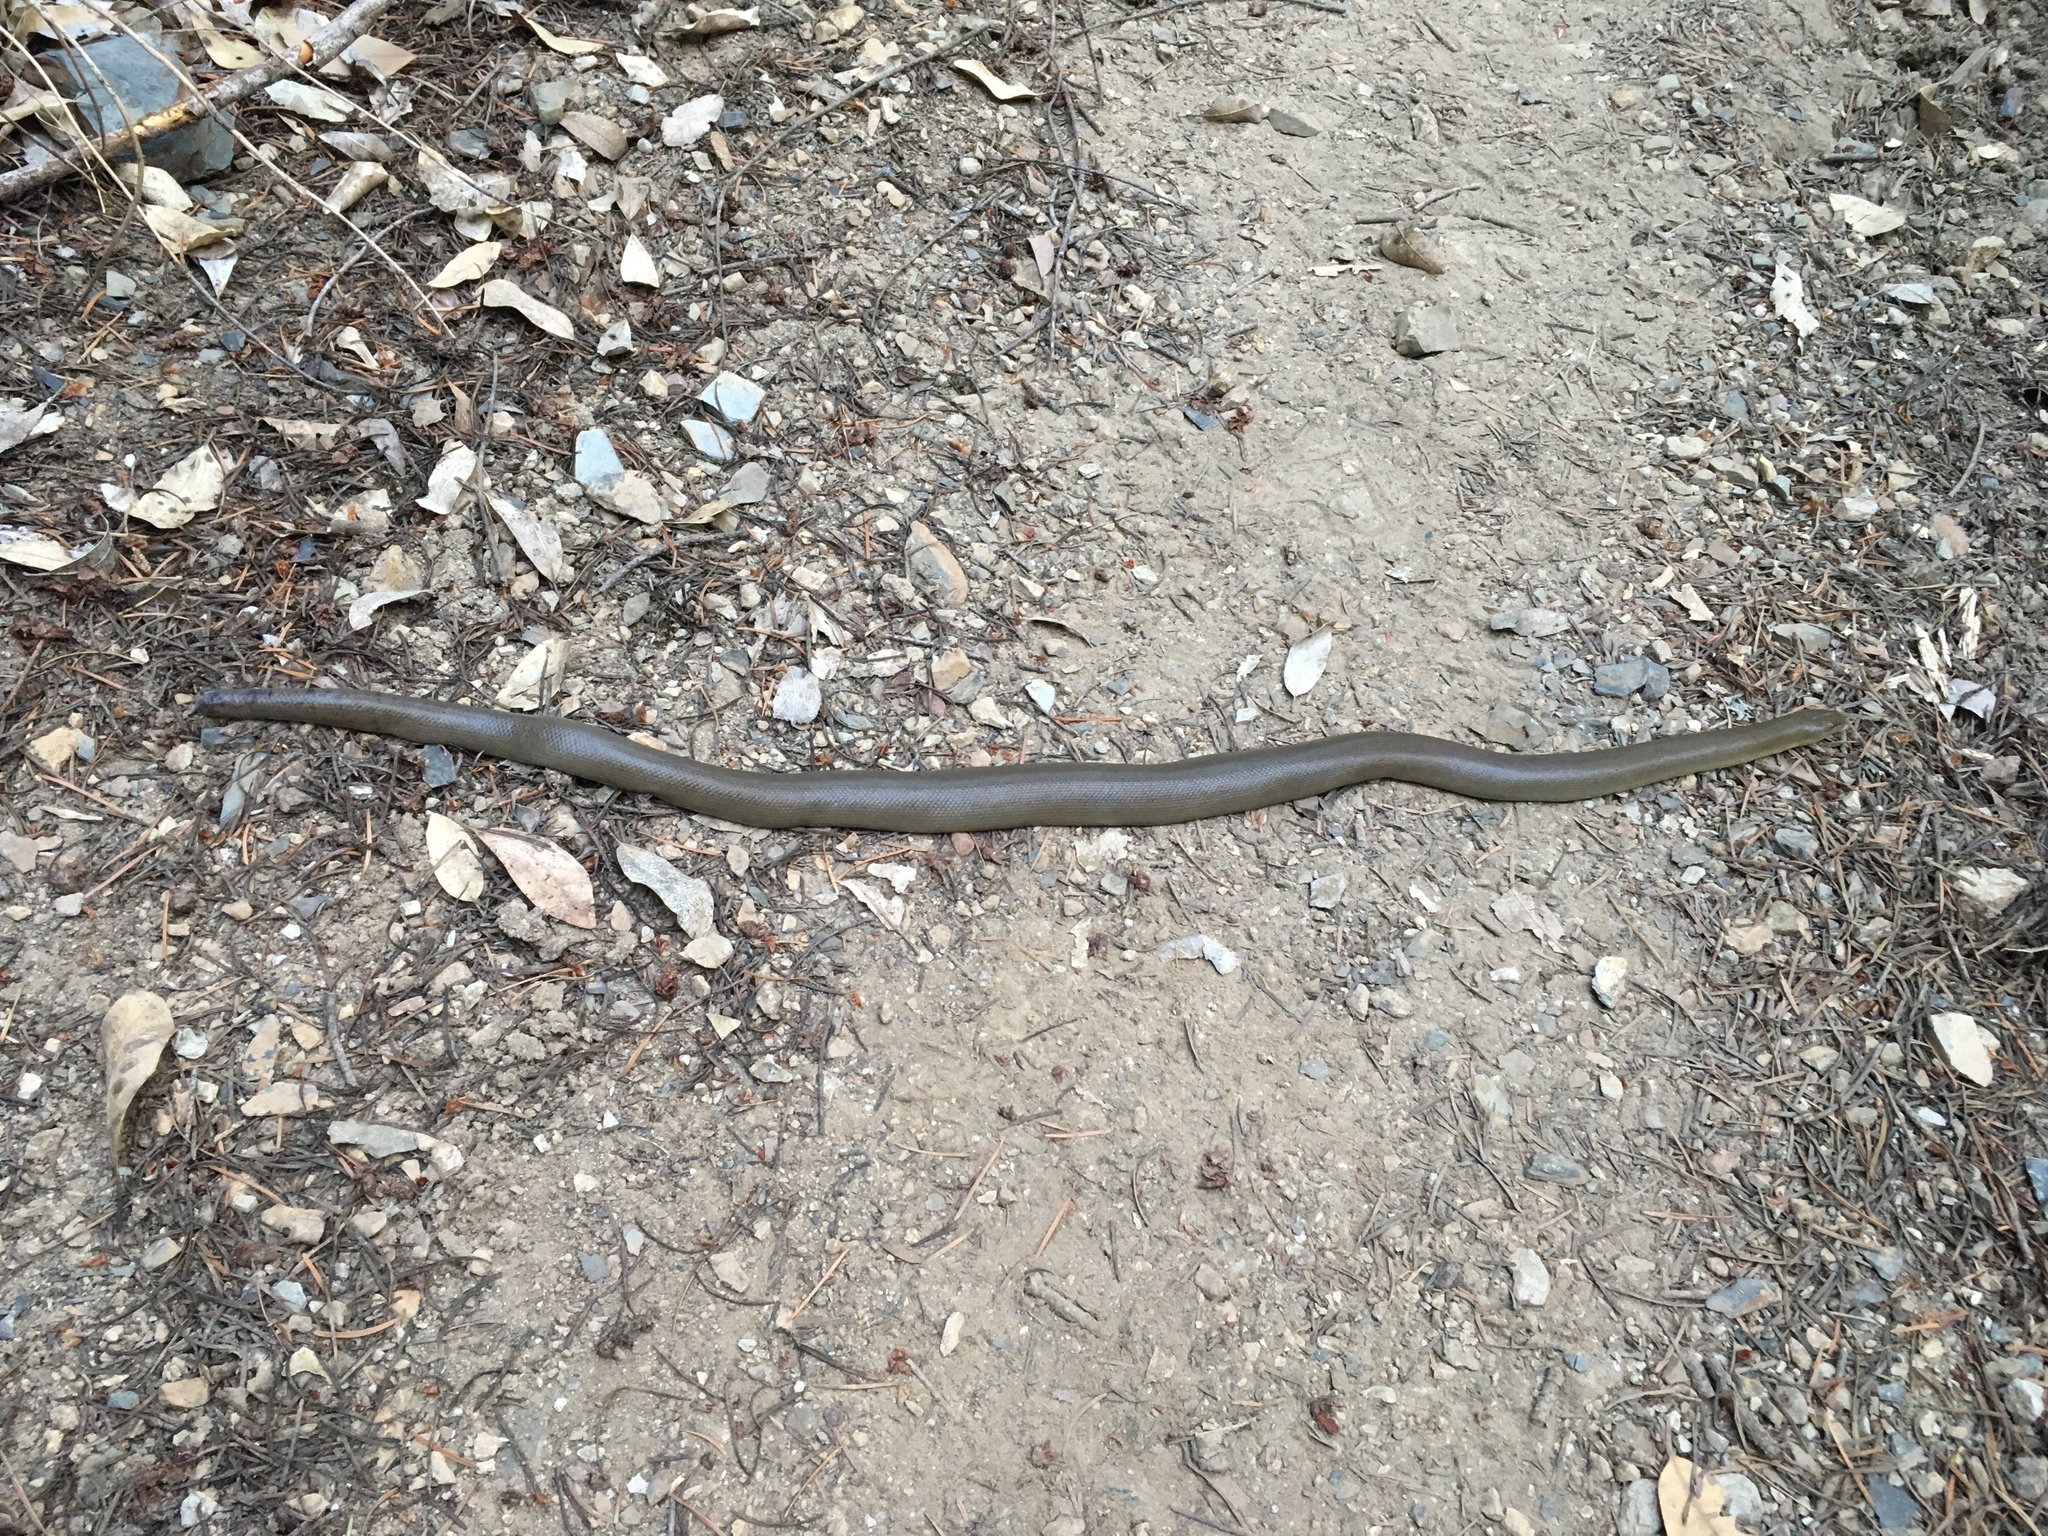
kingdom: Animalia
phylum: Chordata
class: Squamata
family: Boidae
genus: Charina
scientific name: Charina bottae
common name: Northern rubber boa
